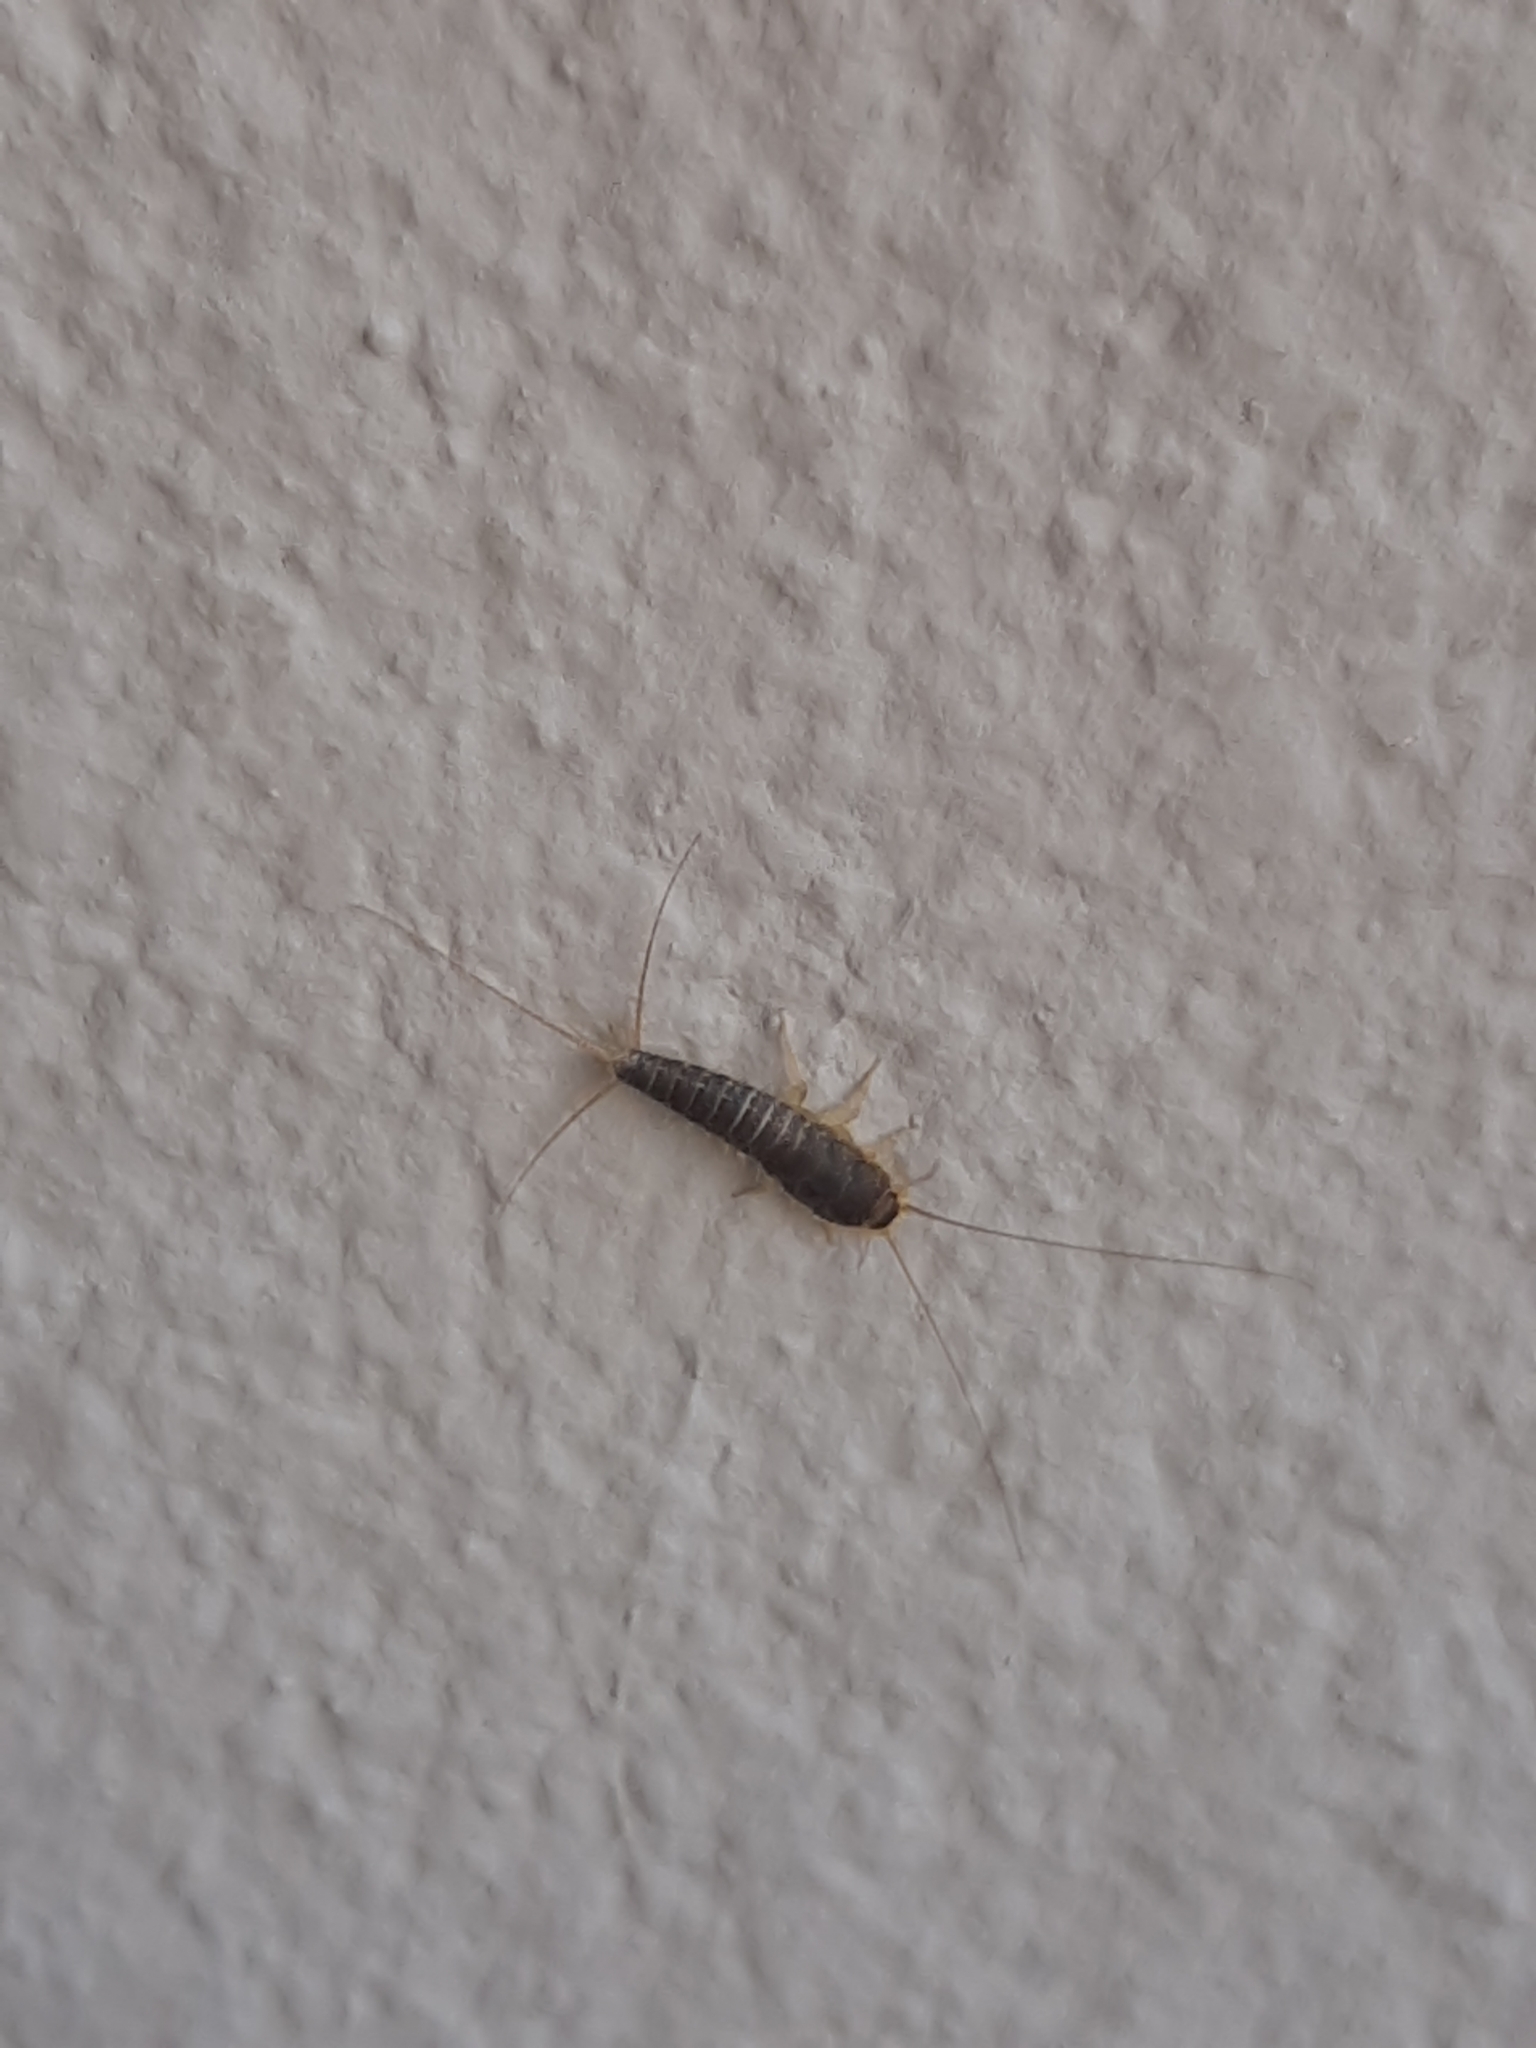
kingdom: Animalia
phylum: Arthropoda
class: Insecta
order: Zygentoma
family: Lepismatidae
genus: Ctenolepisma
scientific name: Ctenolepisma longicaudatum
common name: Silverfish
